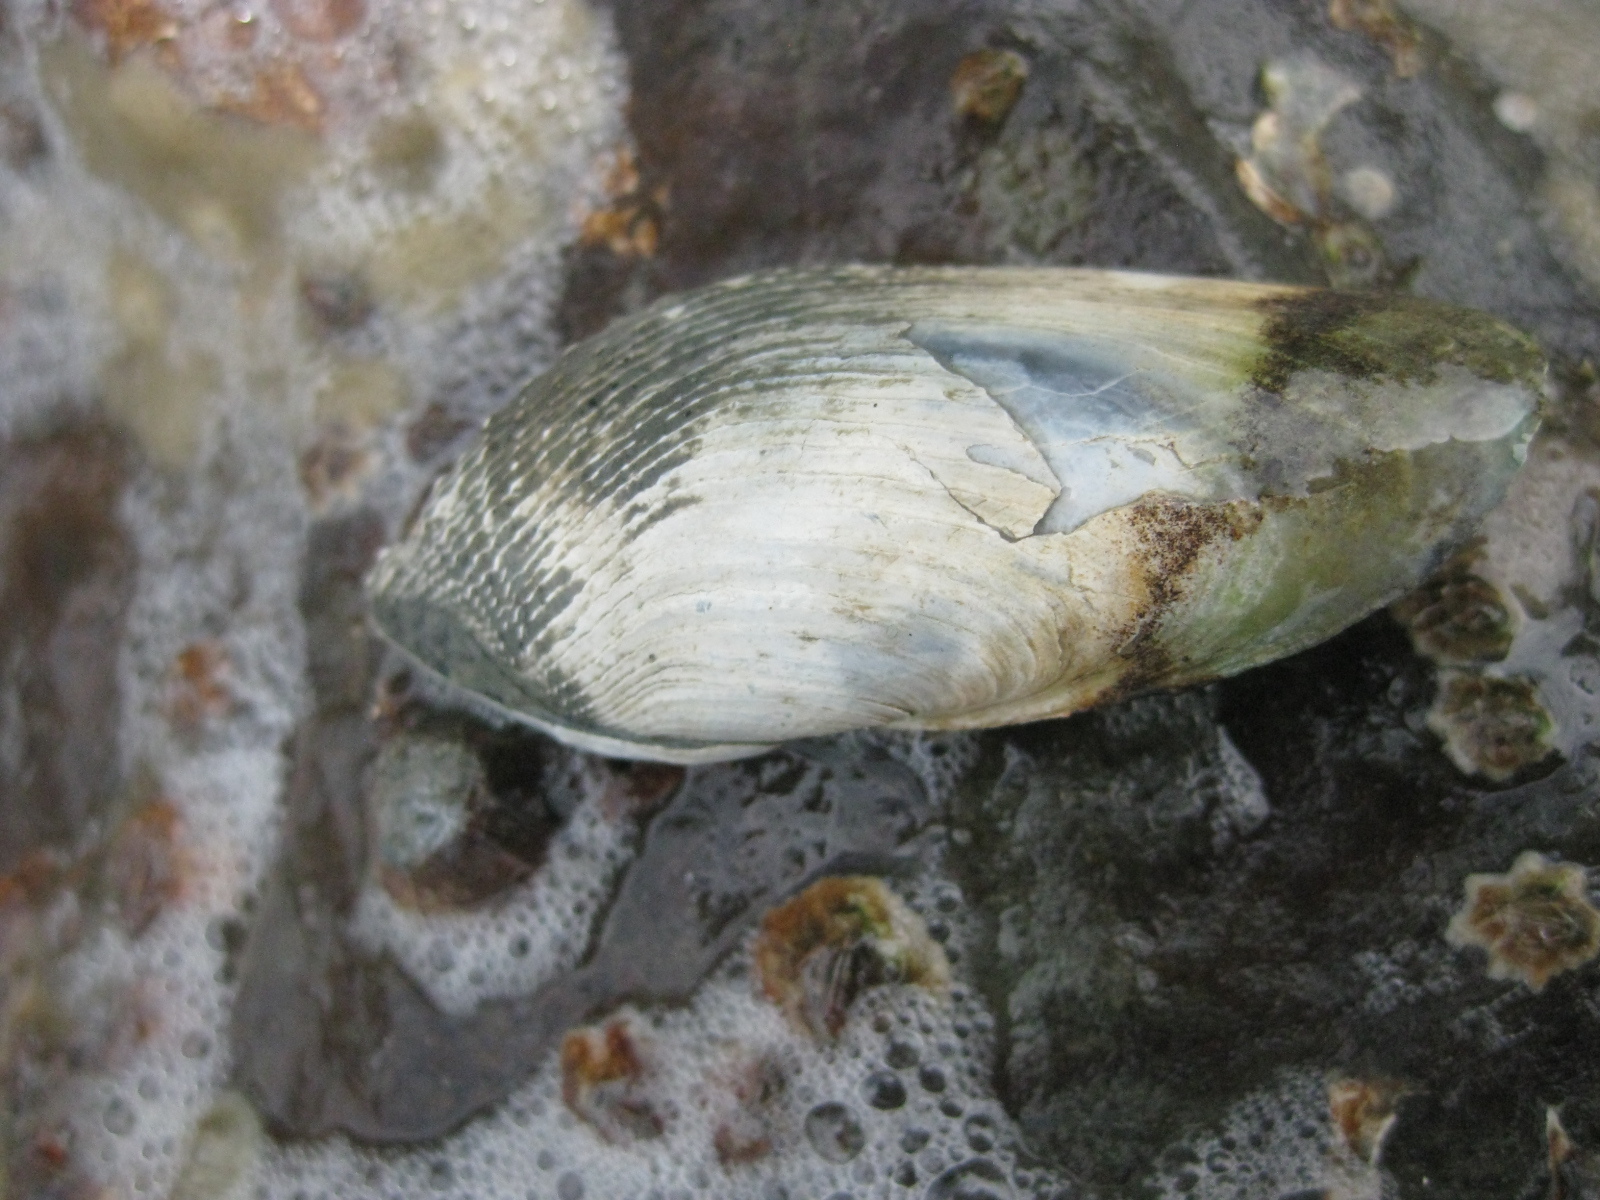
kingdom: Animalia
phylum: Mollusca
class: Bivalvia
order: Myida
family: Pholadidae
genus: Barnea
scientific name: Barnea similis
